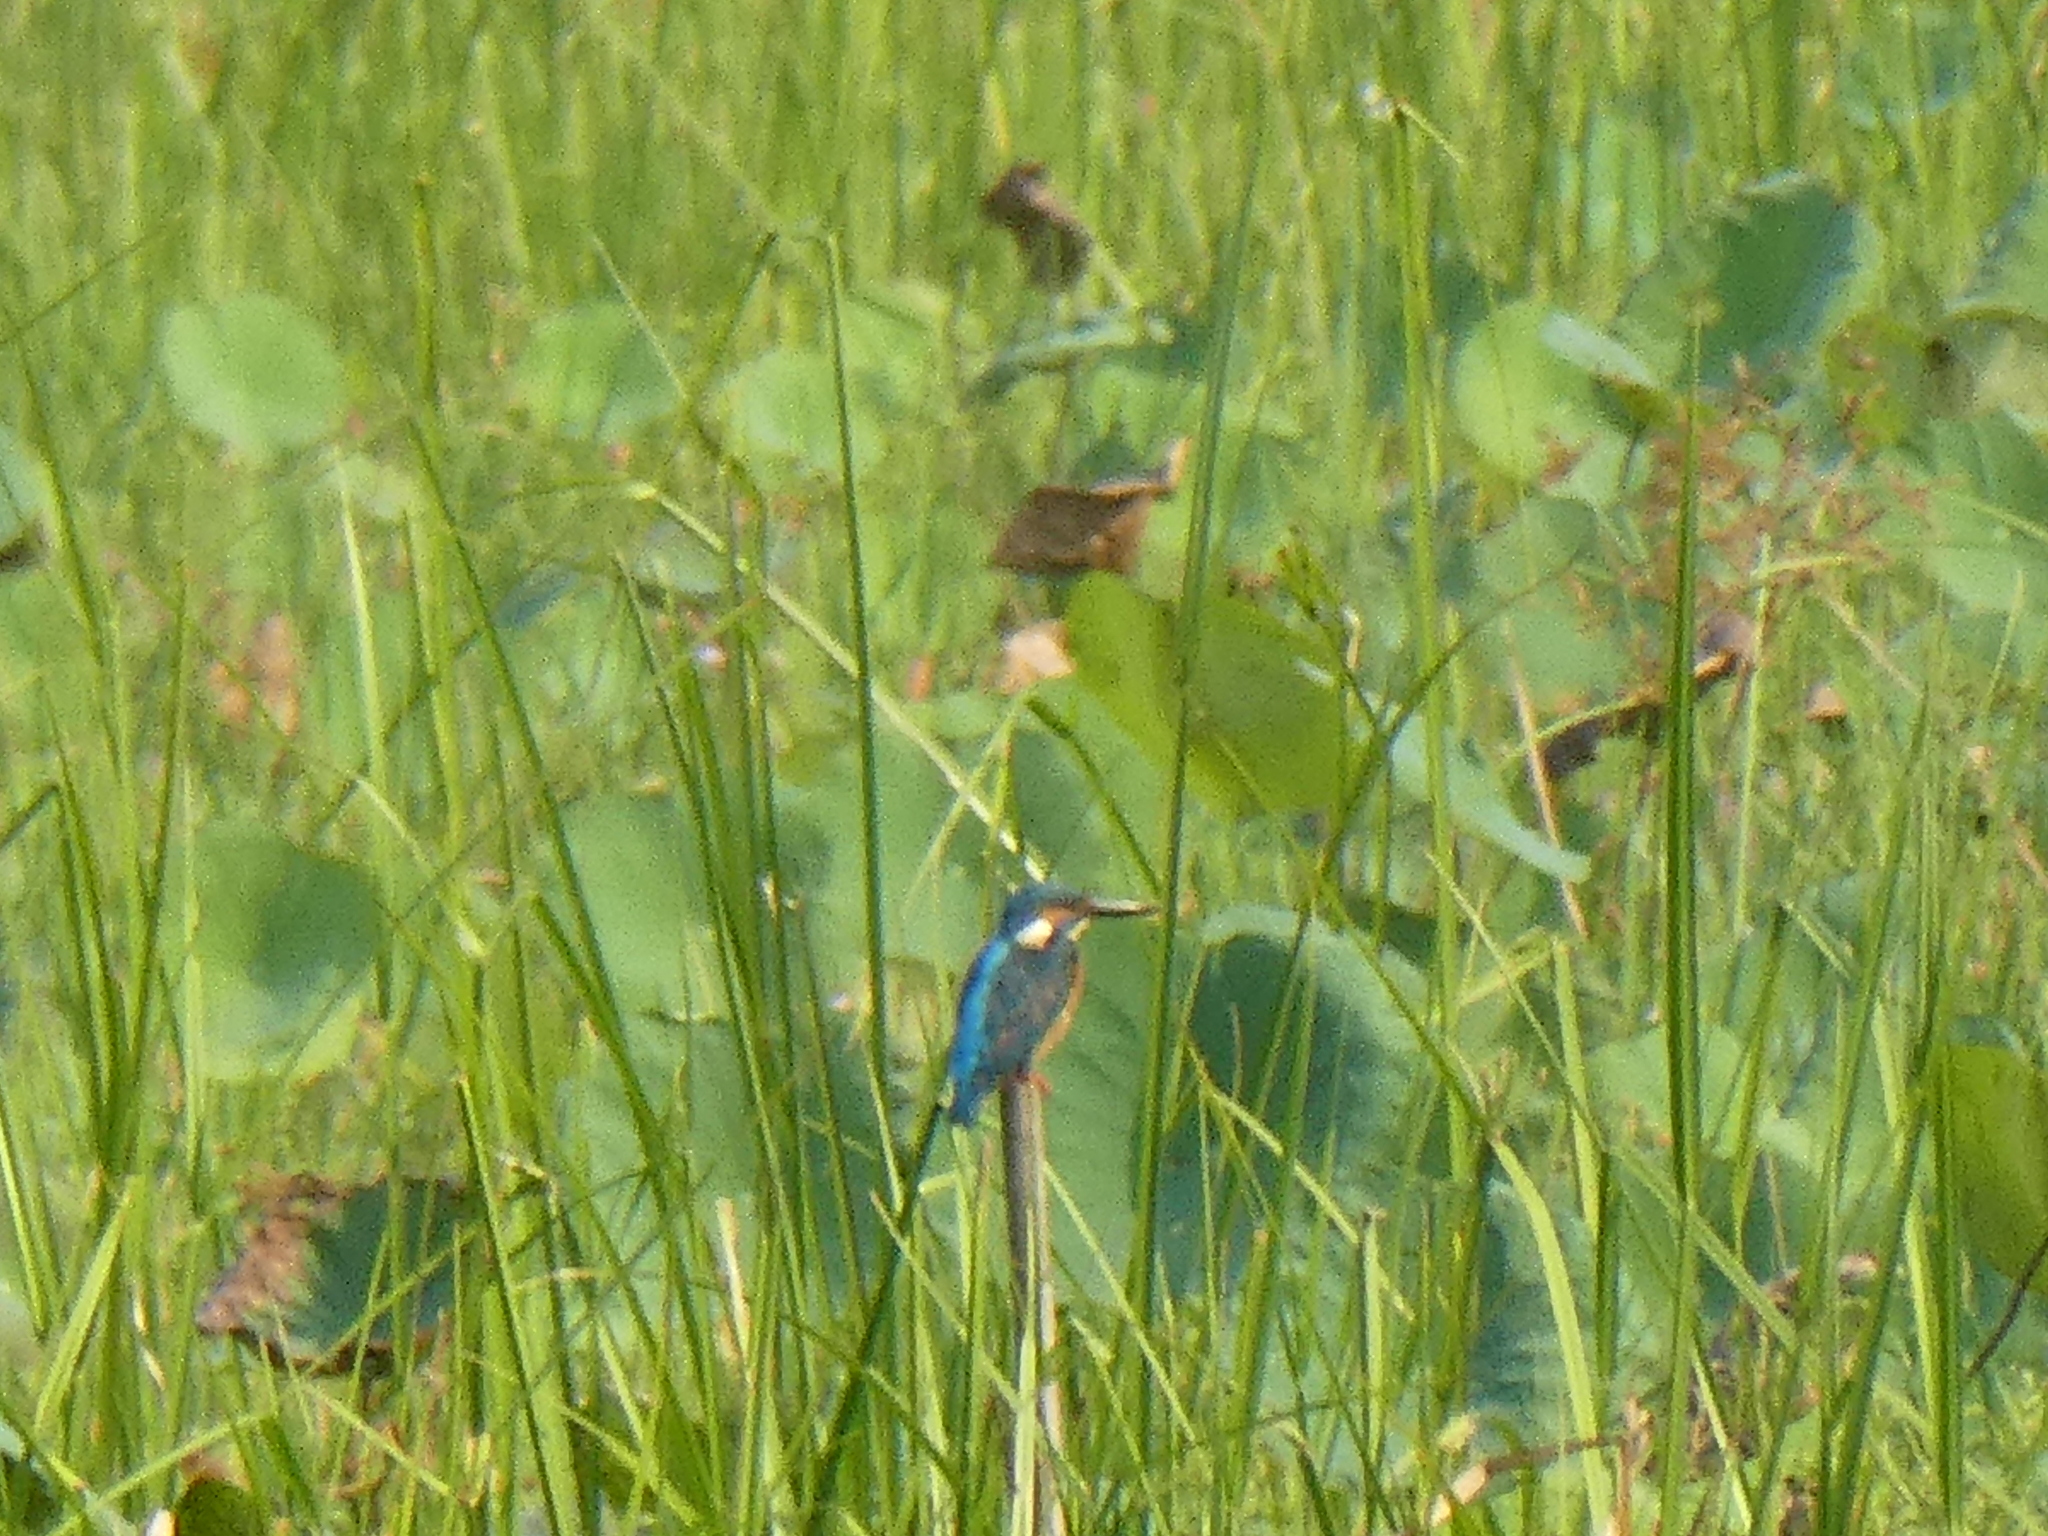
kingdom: Animalia
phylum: Chordata
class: Aves
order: Coraciiformes
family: Alcedinidae
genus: Alcedo
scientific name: Alcedo atthis
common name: Common kingfisher
